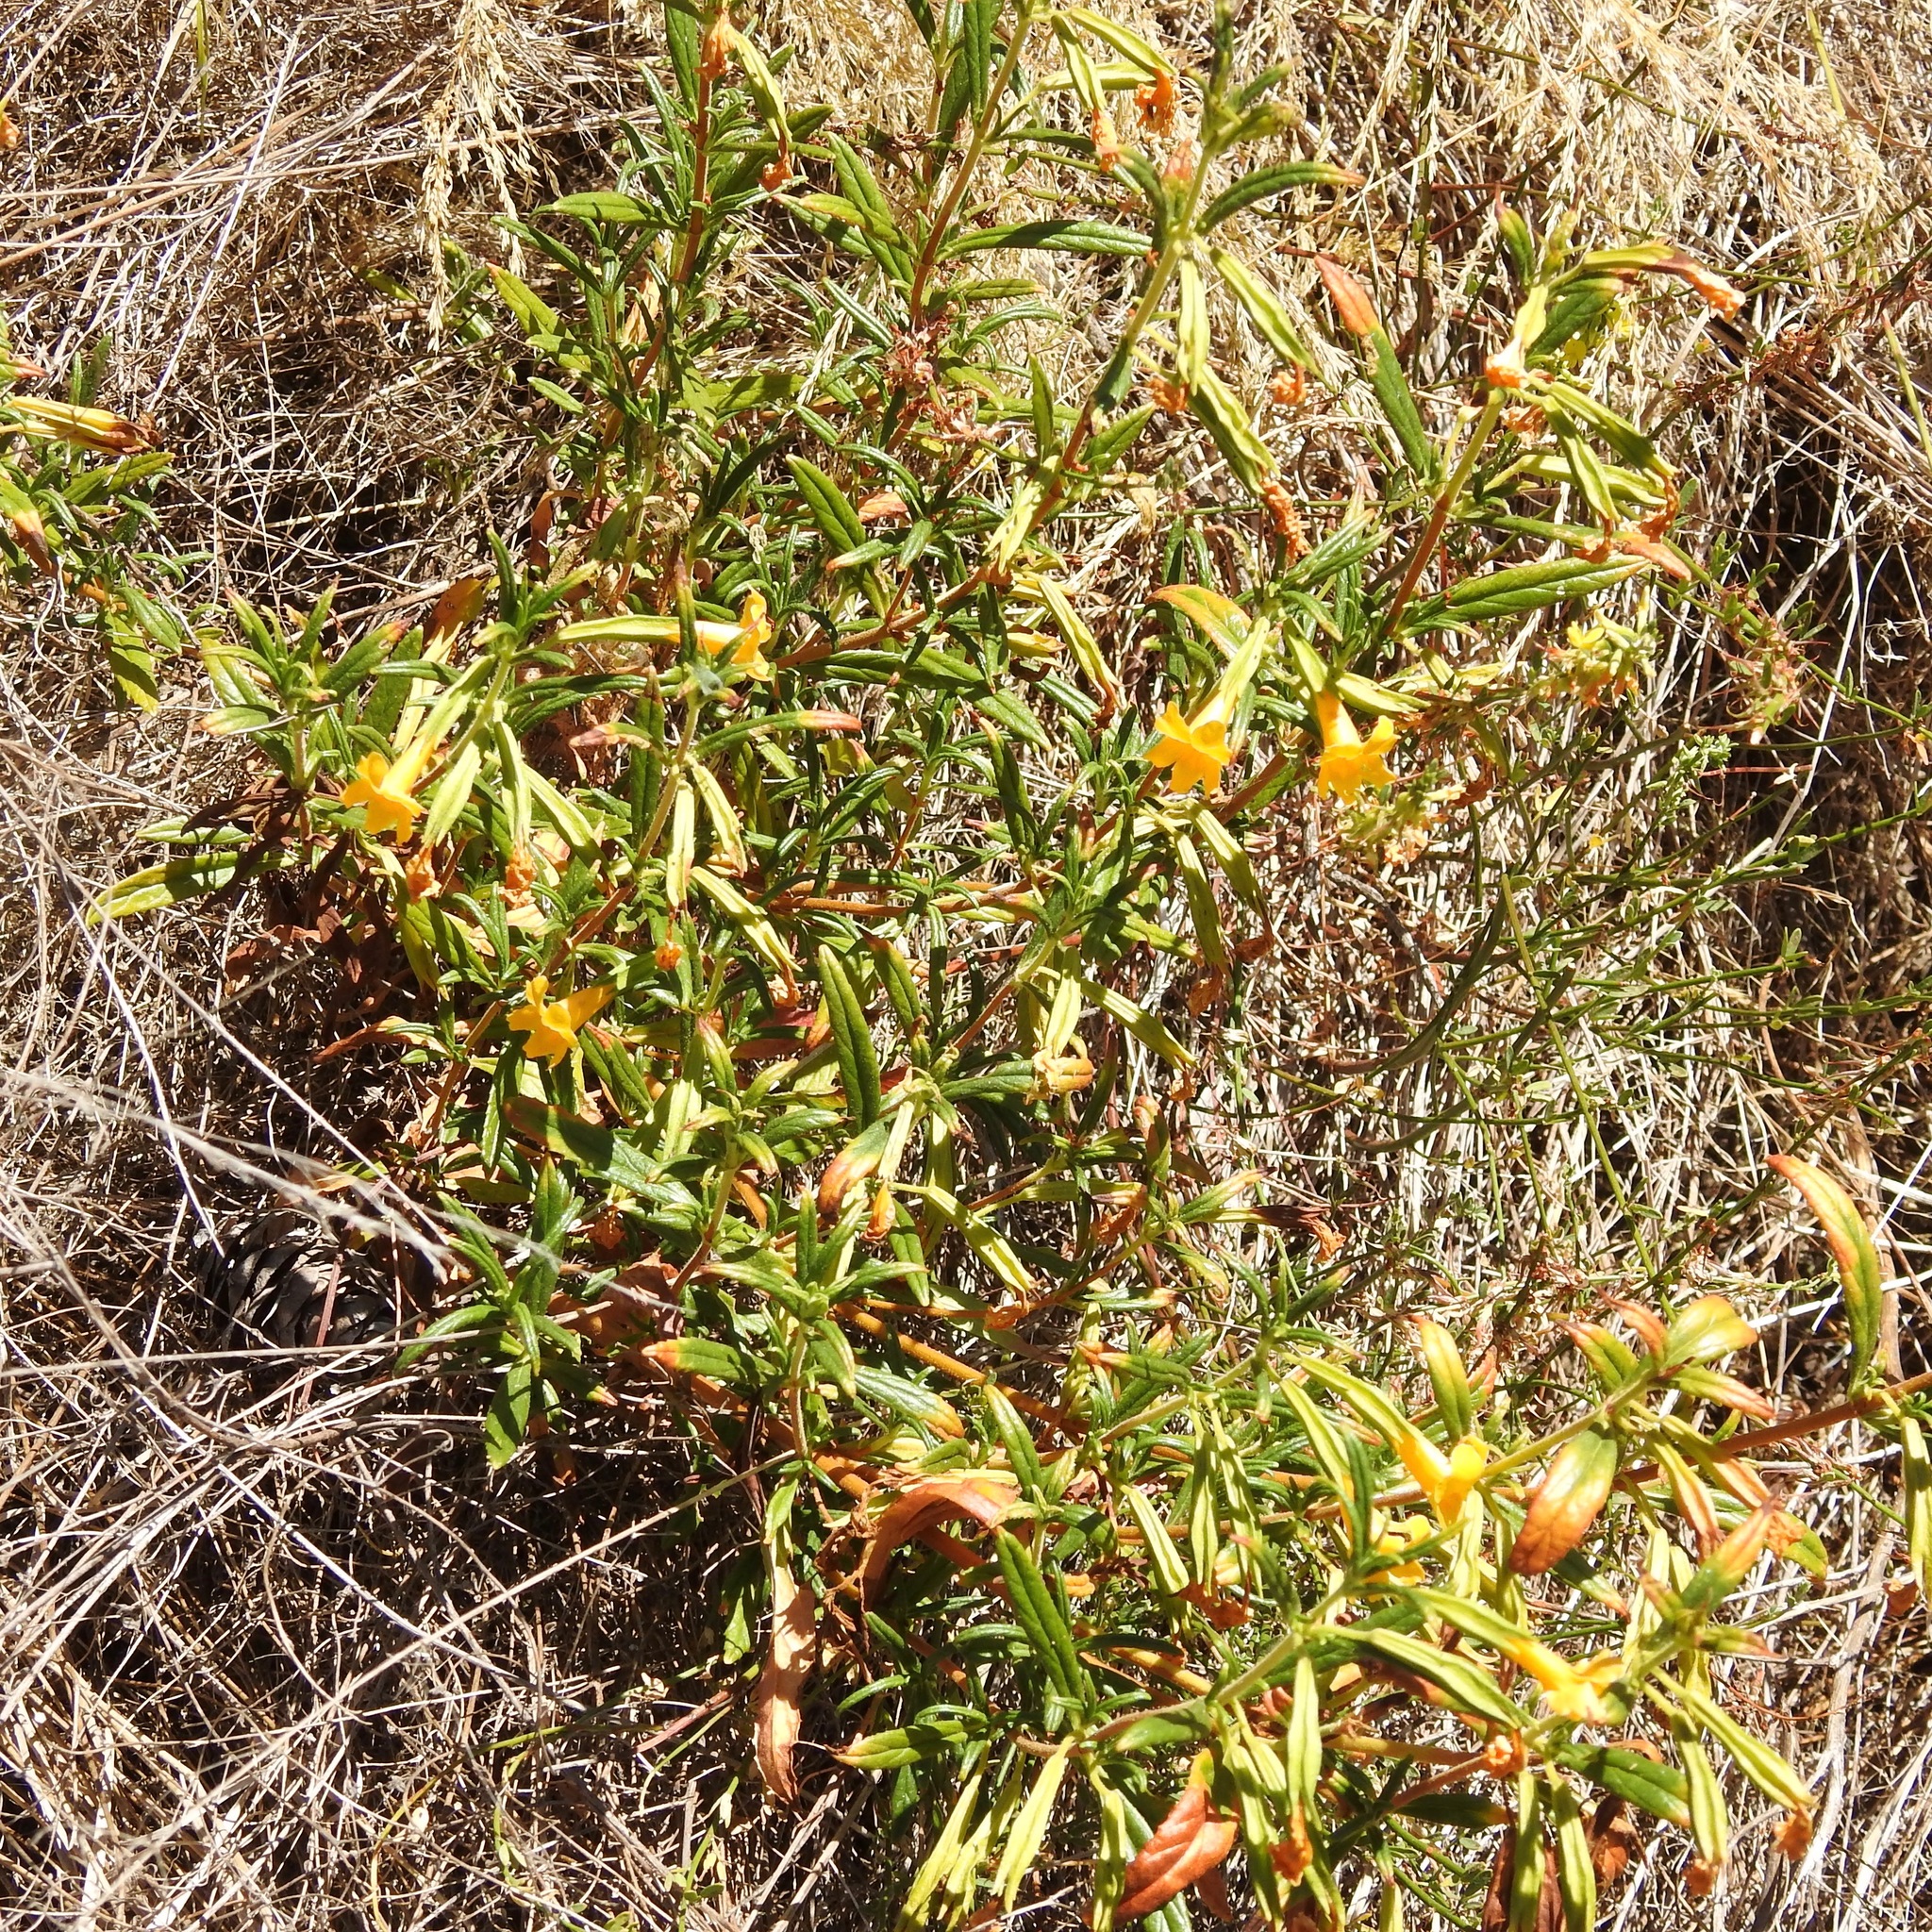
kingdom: Plantae
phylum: Tracheophyta
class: Magnoliopsida
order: Lamiales
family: Phrymaceae
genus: Diplacus
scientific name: Diplacus aurantiacus
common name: Bush monkey-flower
